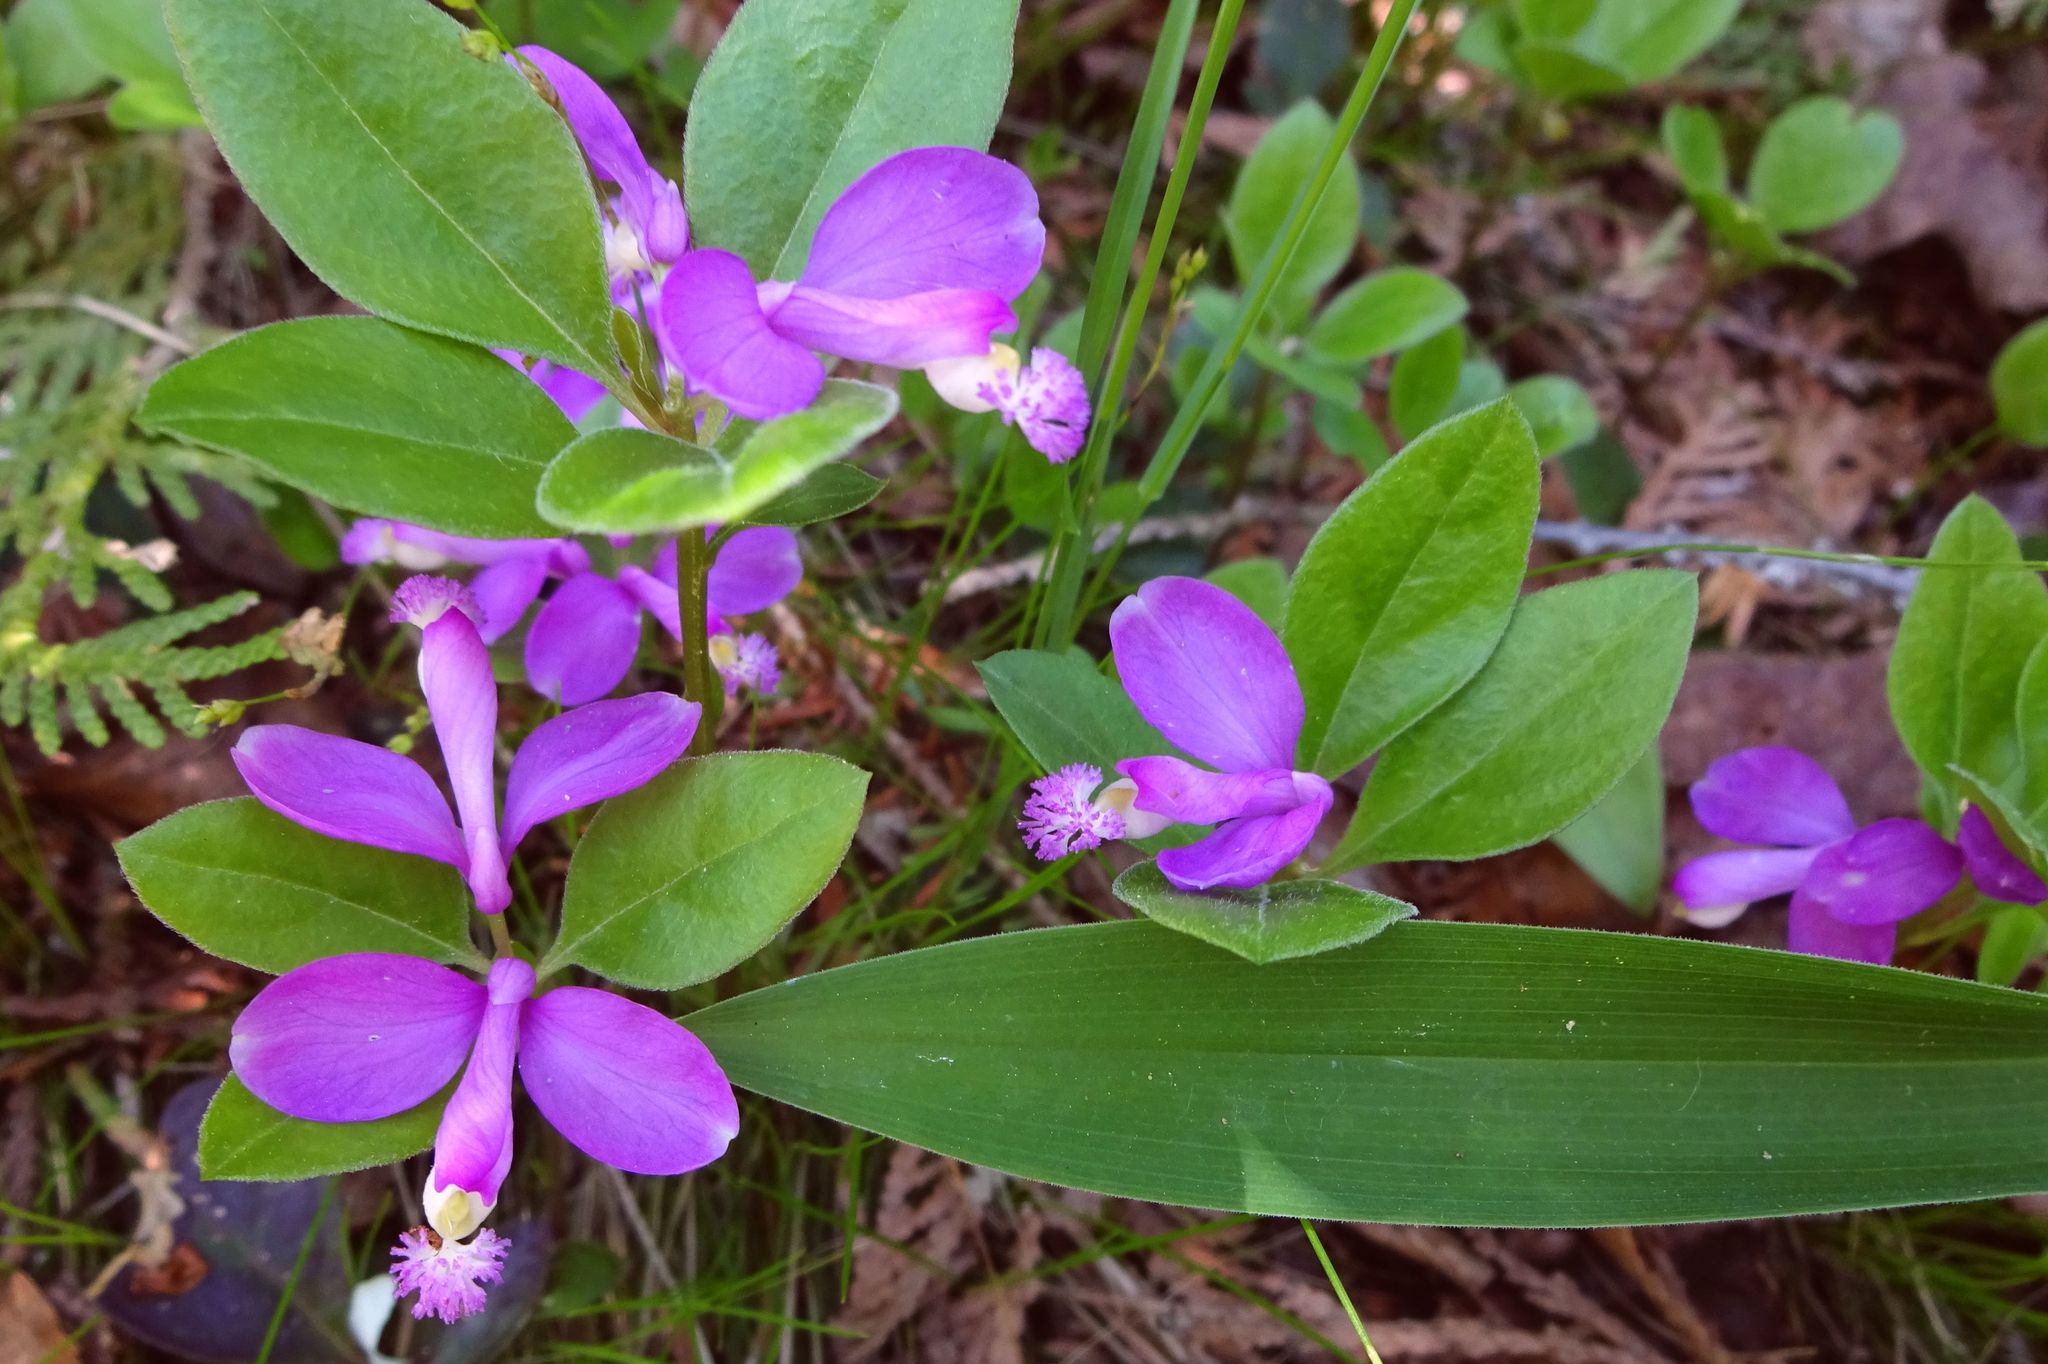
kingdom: Plantae
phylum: Tracheophyta
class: Magnoliopsida
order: Fabales
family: Polygalaceae
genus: Polygaloides
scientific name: Polygaloides paucifolia
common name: Bird-on-the-wing
